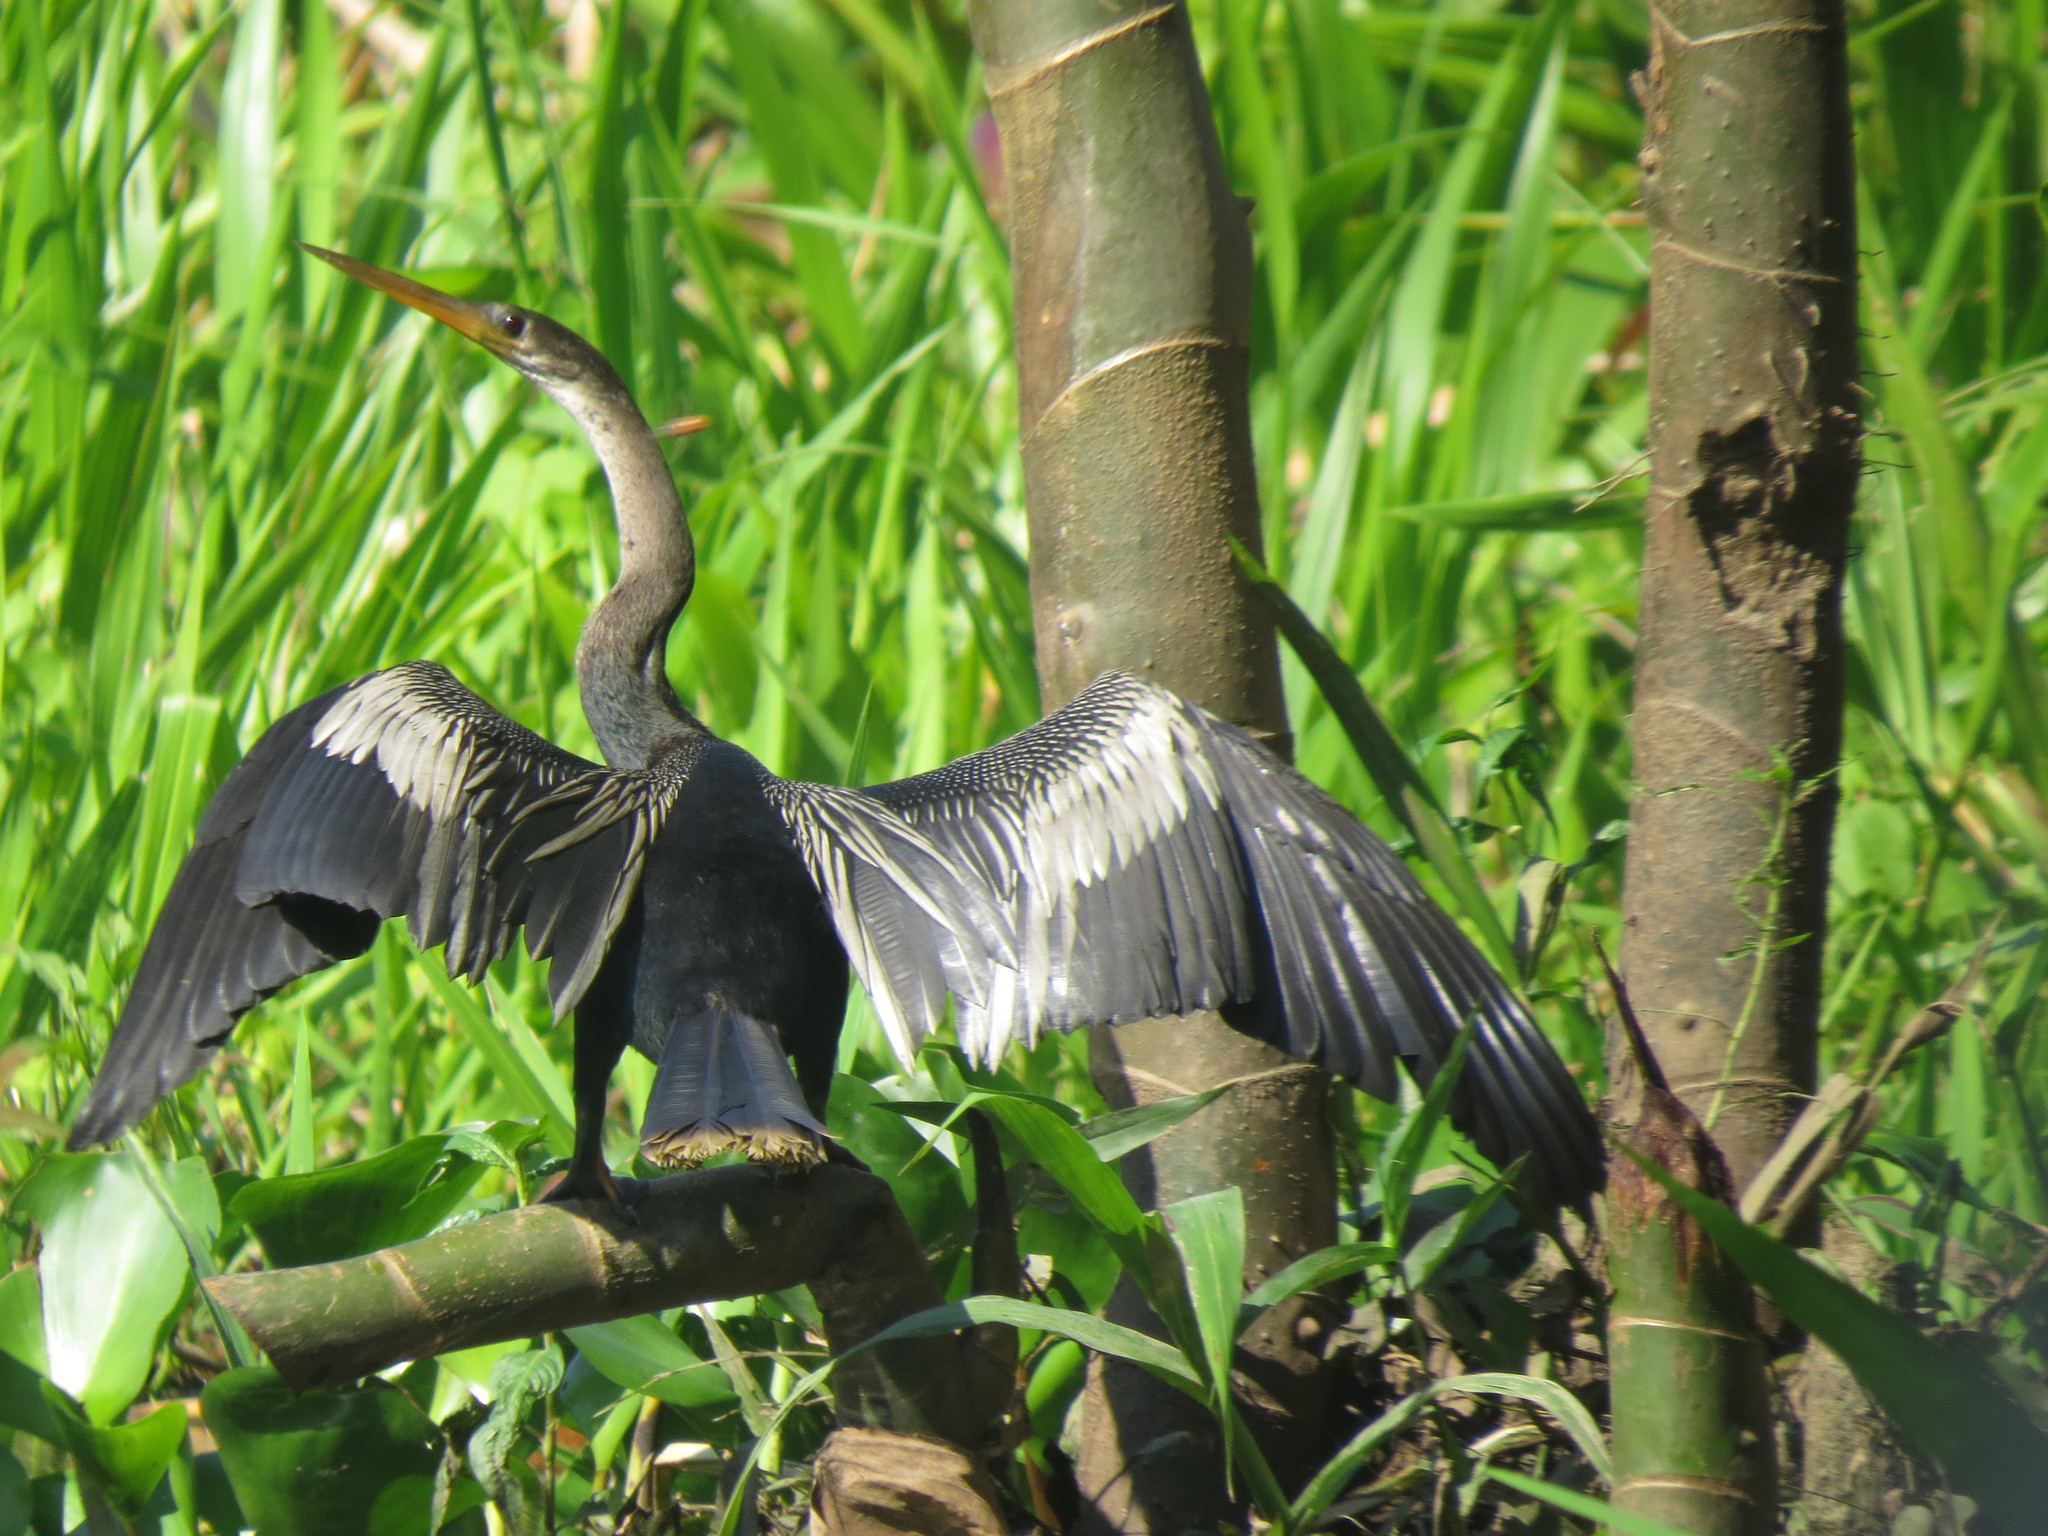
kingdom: Animalia
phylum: Chordata
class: Aves
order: Suliformes
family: Anhingidae
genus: Anhinga
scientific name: Anhinga anhinga
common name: Anhinga
